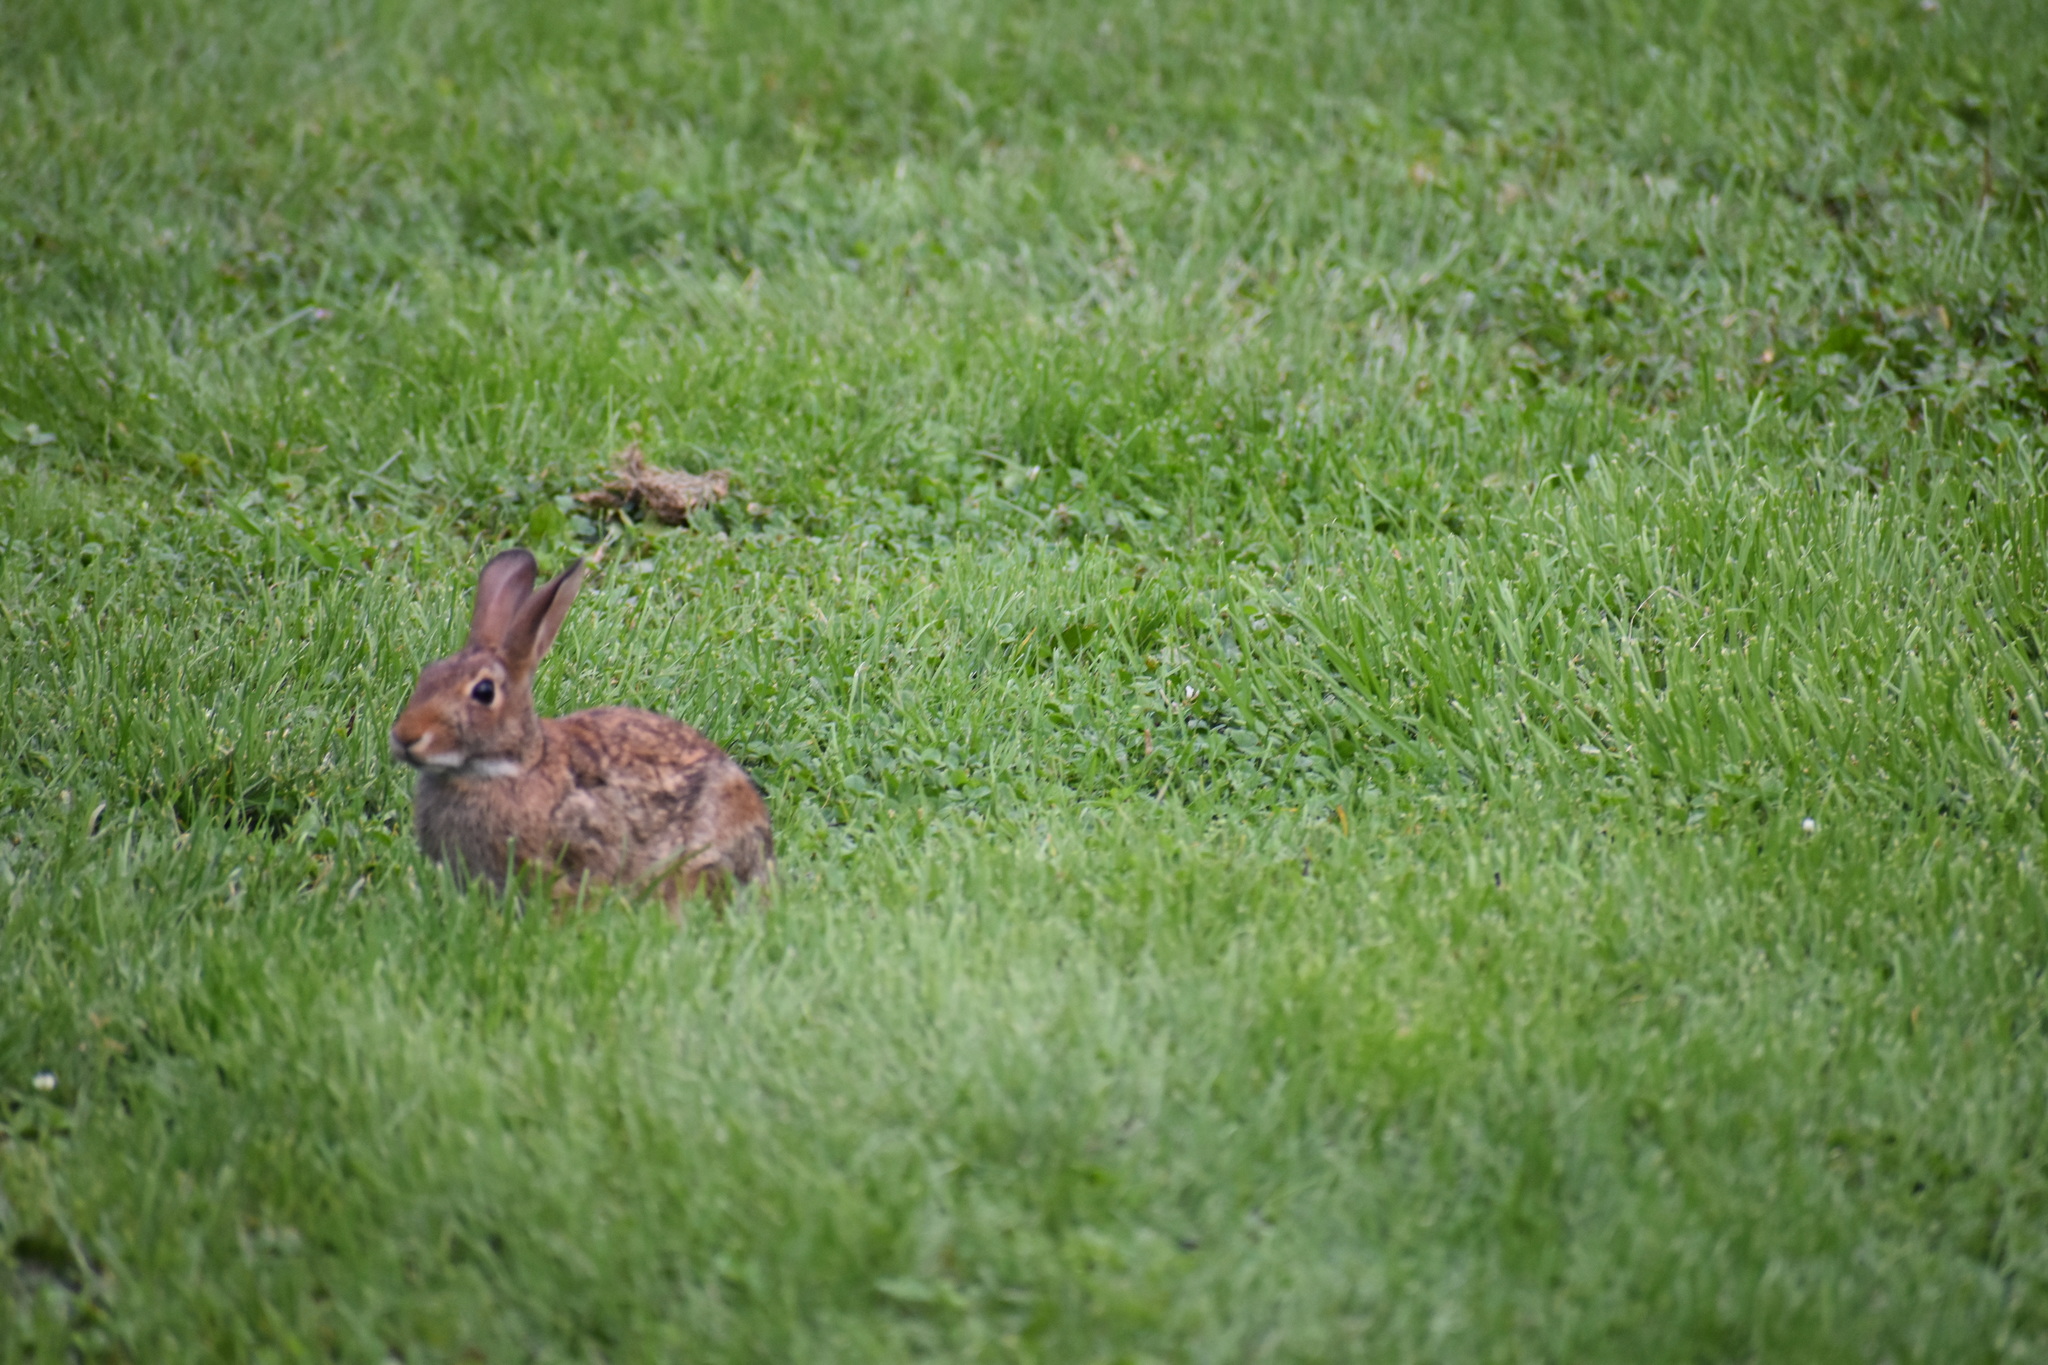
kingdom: Animalia
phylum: Chordata
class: Mammalia
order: Lagomorpha
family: Leporidae
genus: Sylvilagus
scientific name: Sylvilagus floridanus
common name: Eastern cottontail
